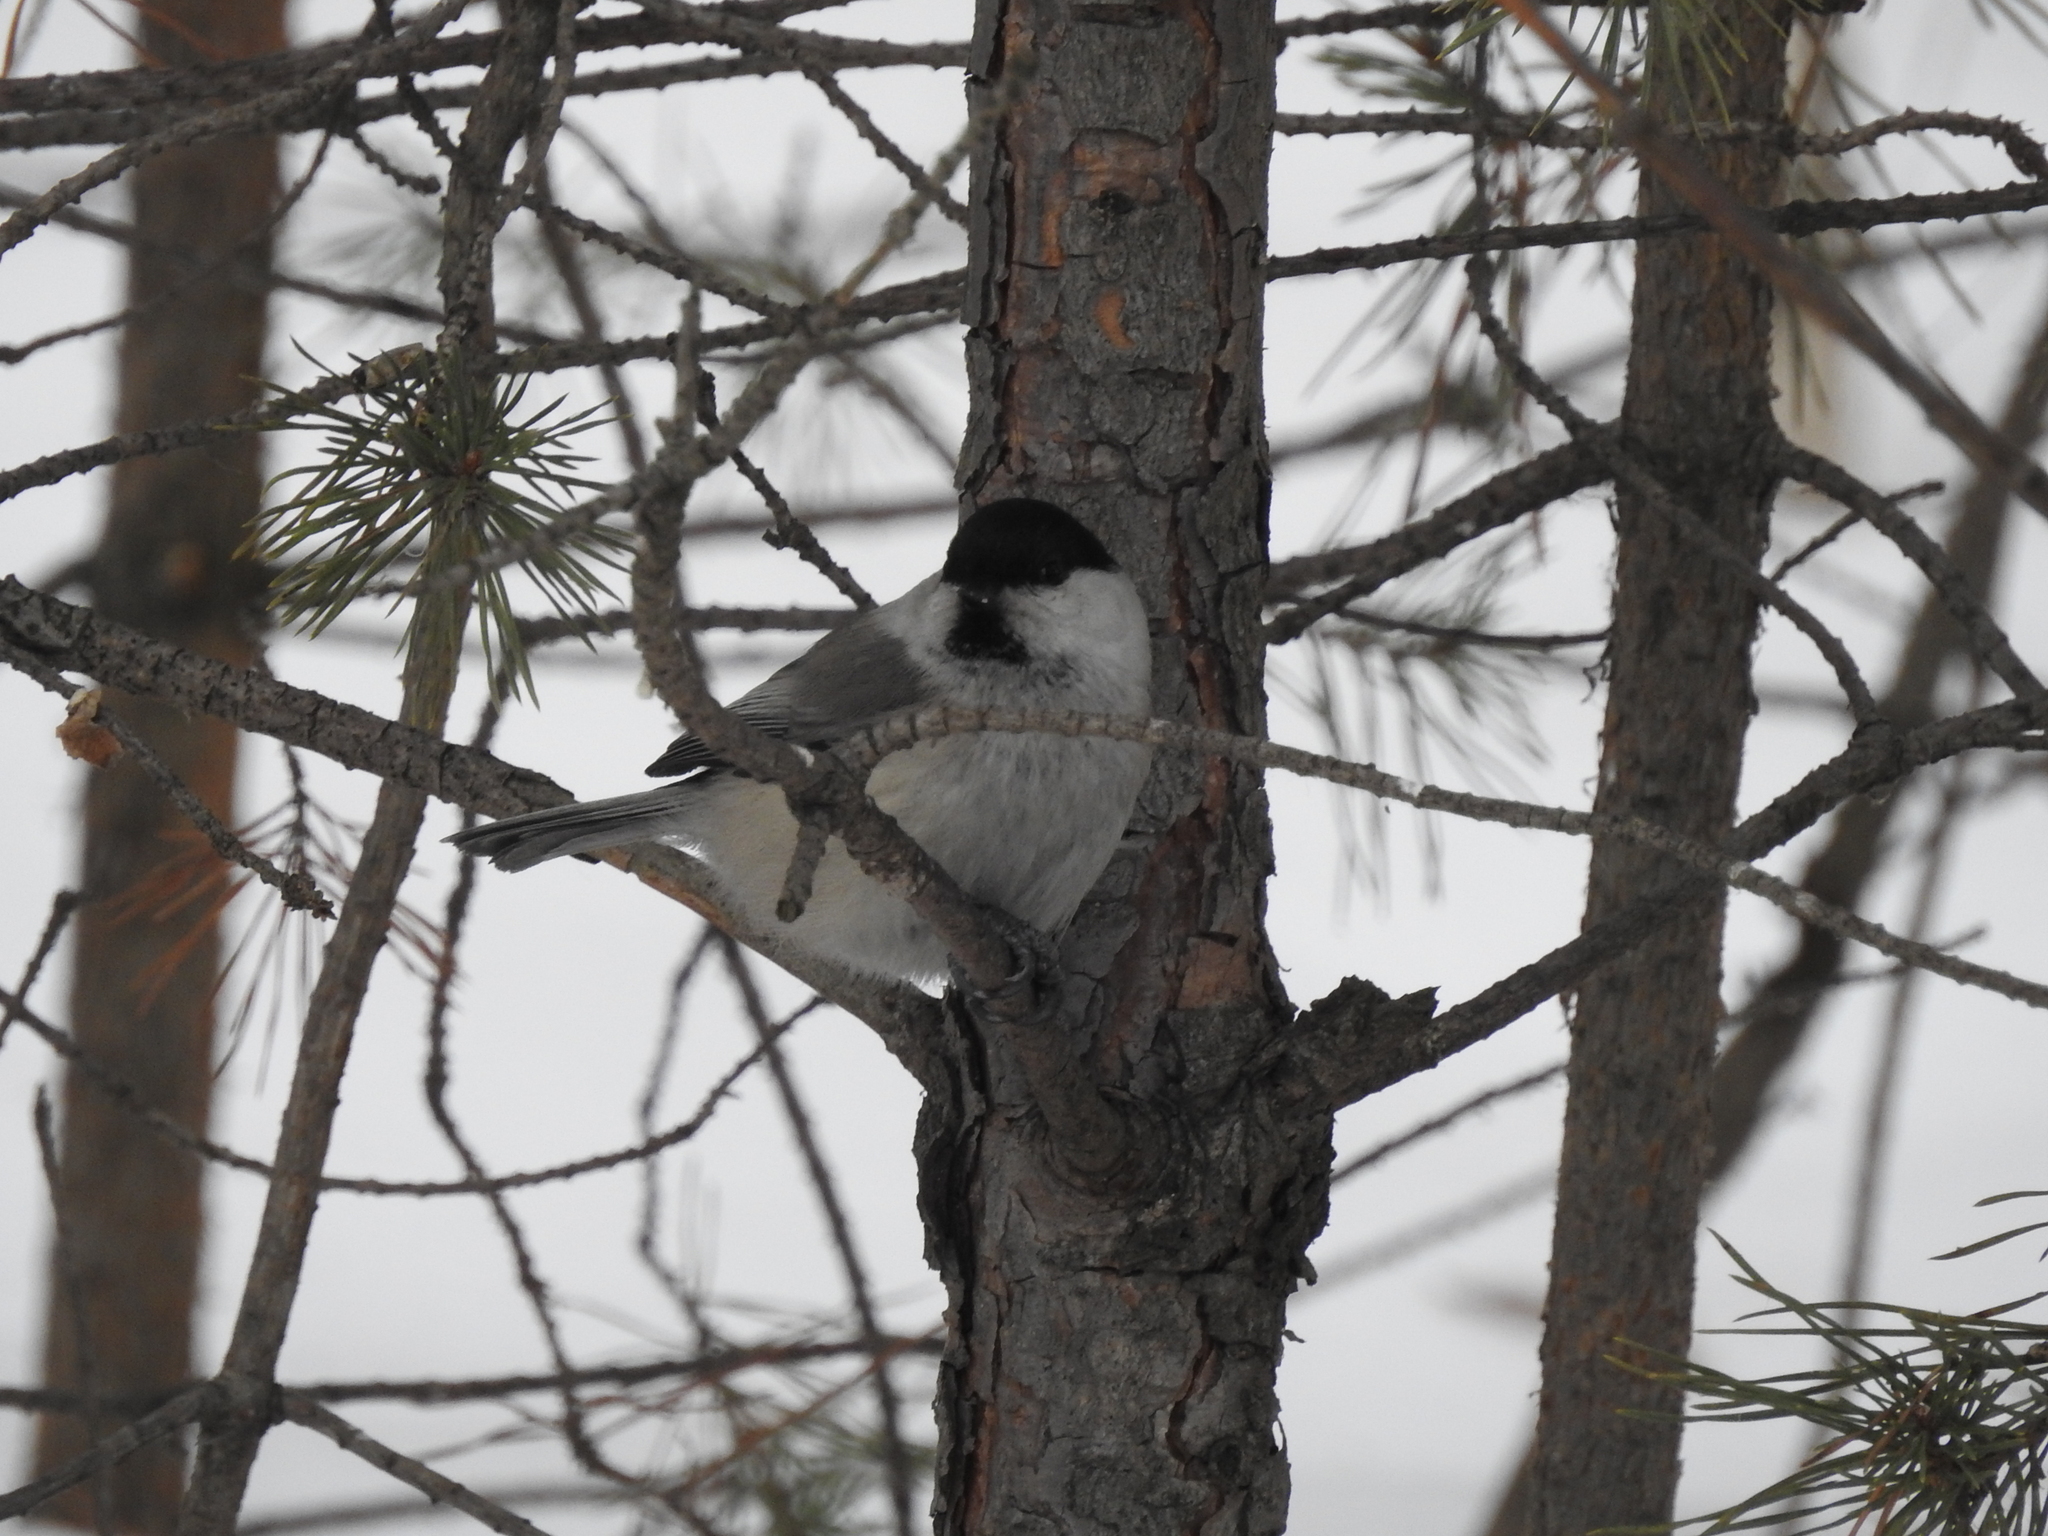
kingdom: Animalia
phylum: Chordata
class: Aves
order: Passeriformes
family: Paridae
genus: Poecile
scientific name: Poecile montanus
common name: Willow tit
